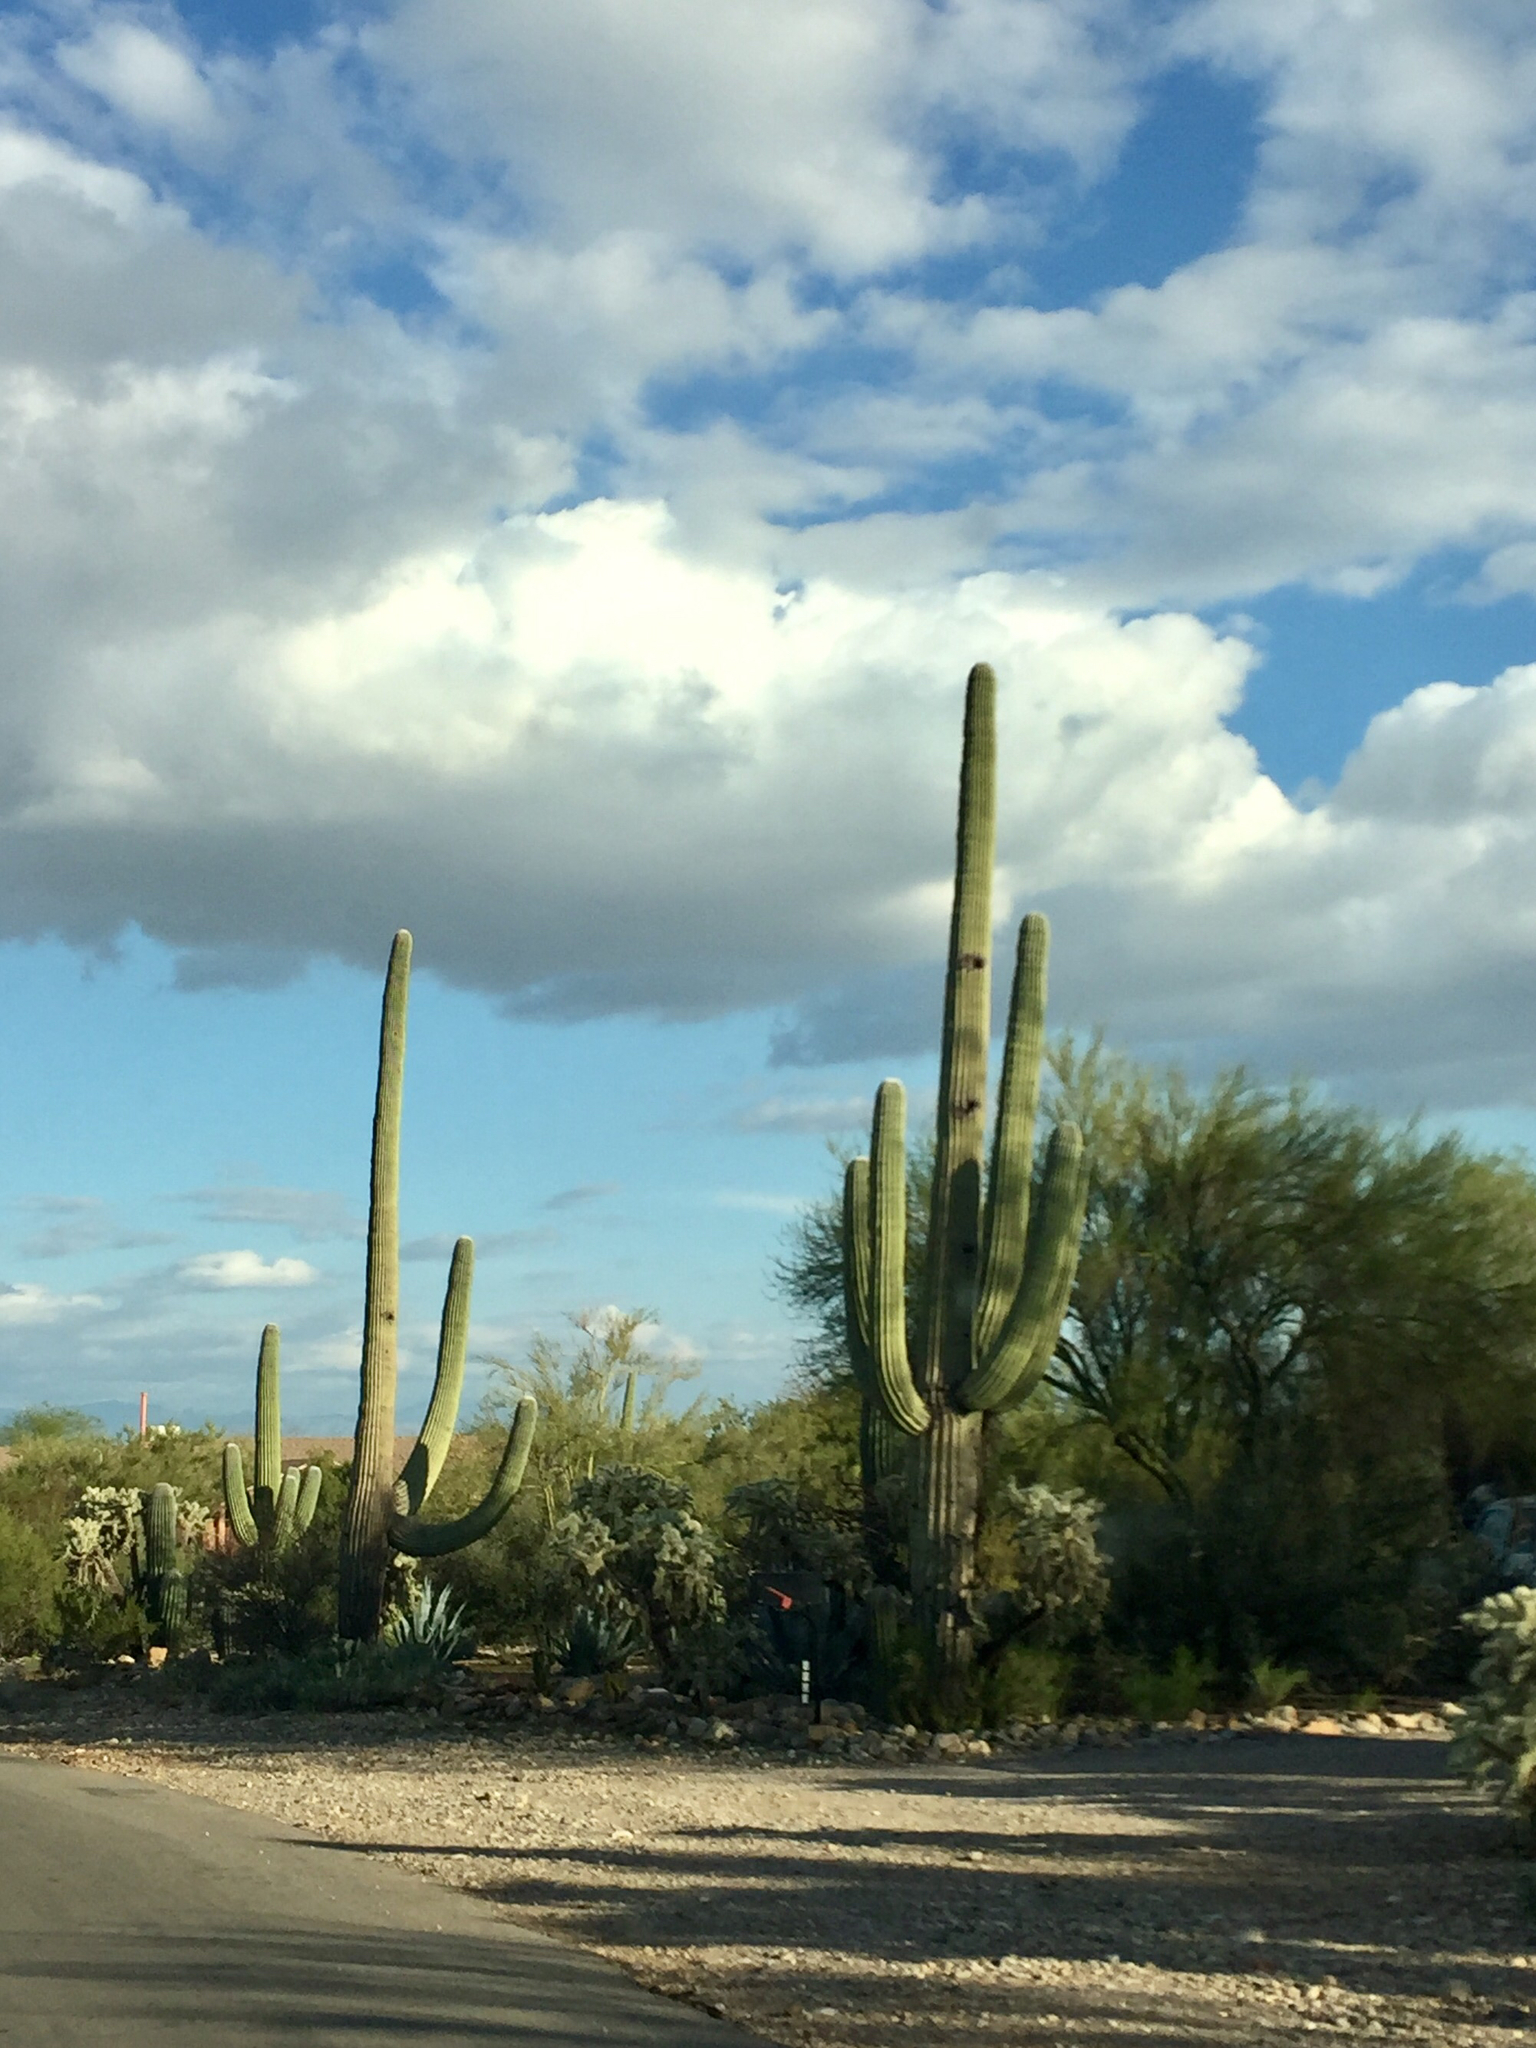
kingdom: Plantae
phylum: Tracheophyta
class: Magnoliopsida
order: Caryophyllales
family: Cactaceae
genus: Carnegiea
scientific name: Carnegiea gigantea
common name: Saguaro
